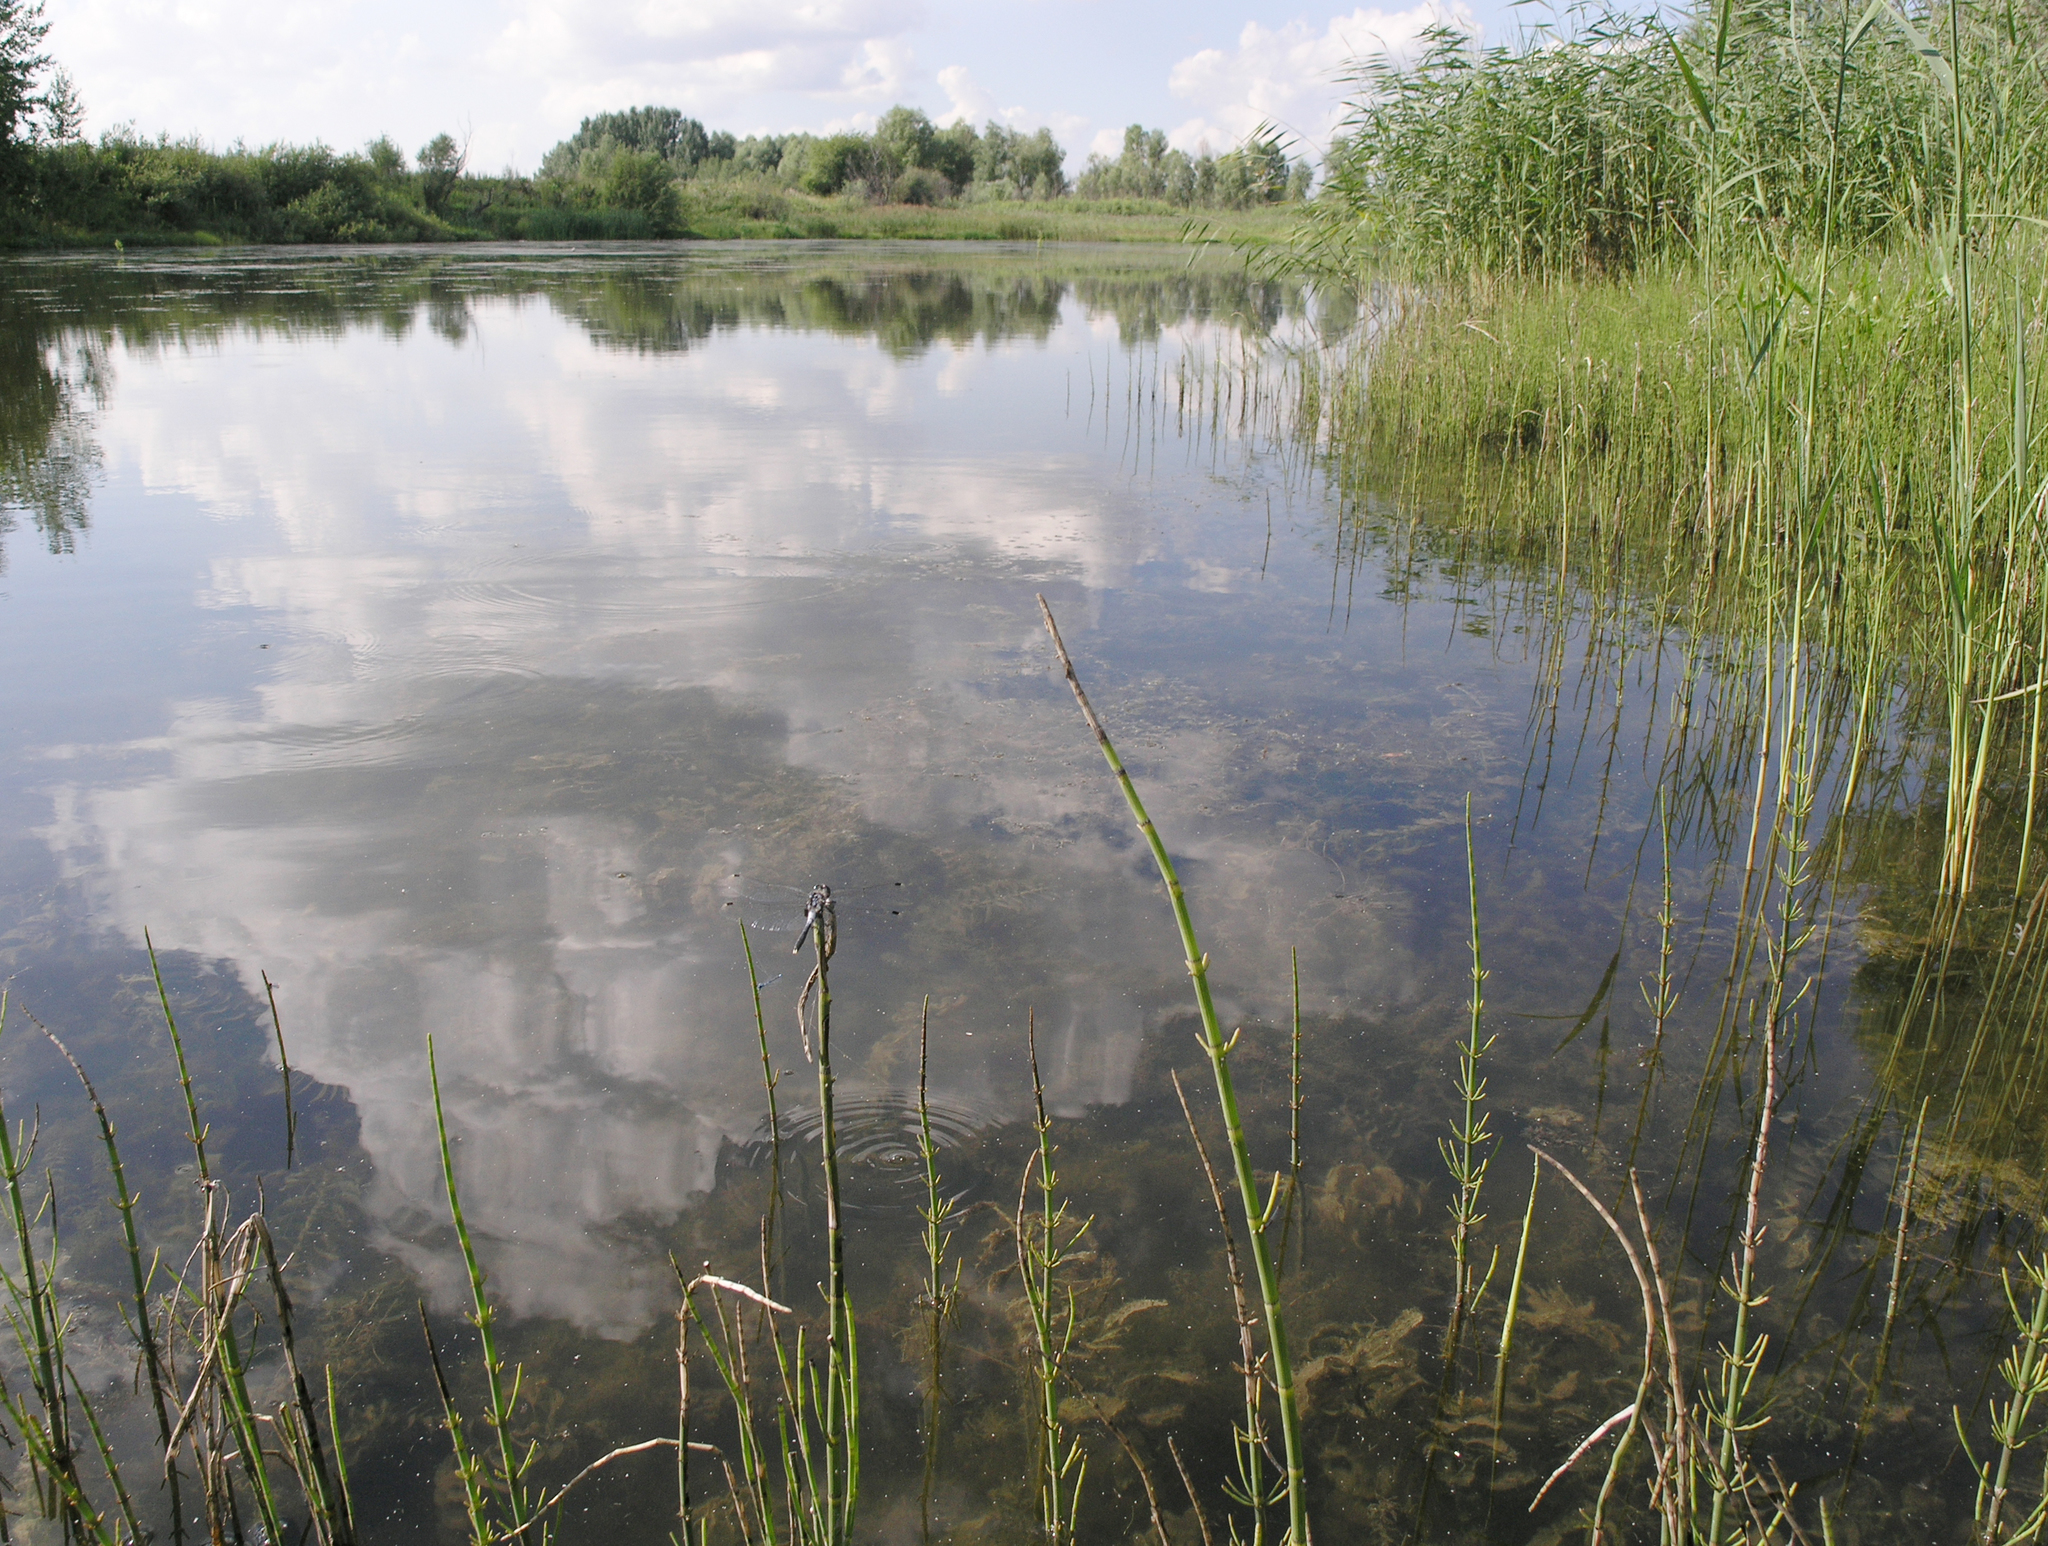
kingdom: Plantae
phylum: Tracheophyta
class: Polypodiopsida
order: Equisetales
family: Equisetaceae
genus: Equisetum
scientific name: Equisetum fluviatile
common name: Water horsetail
